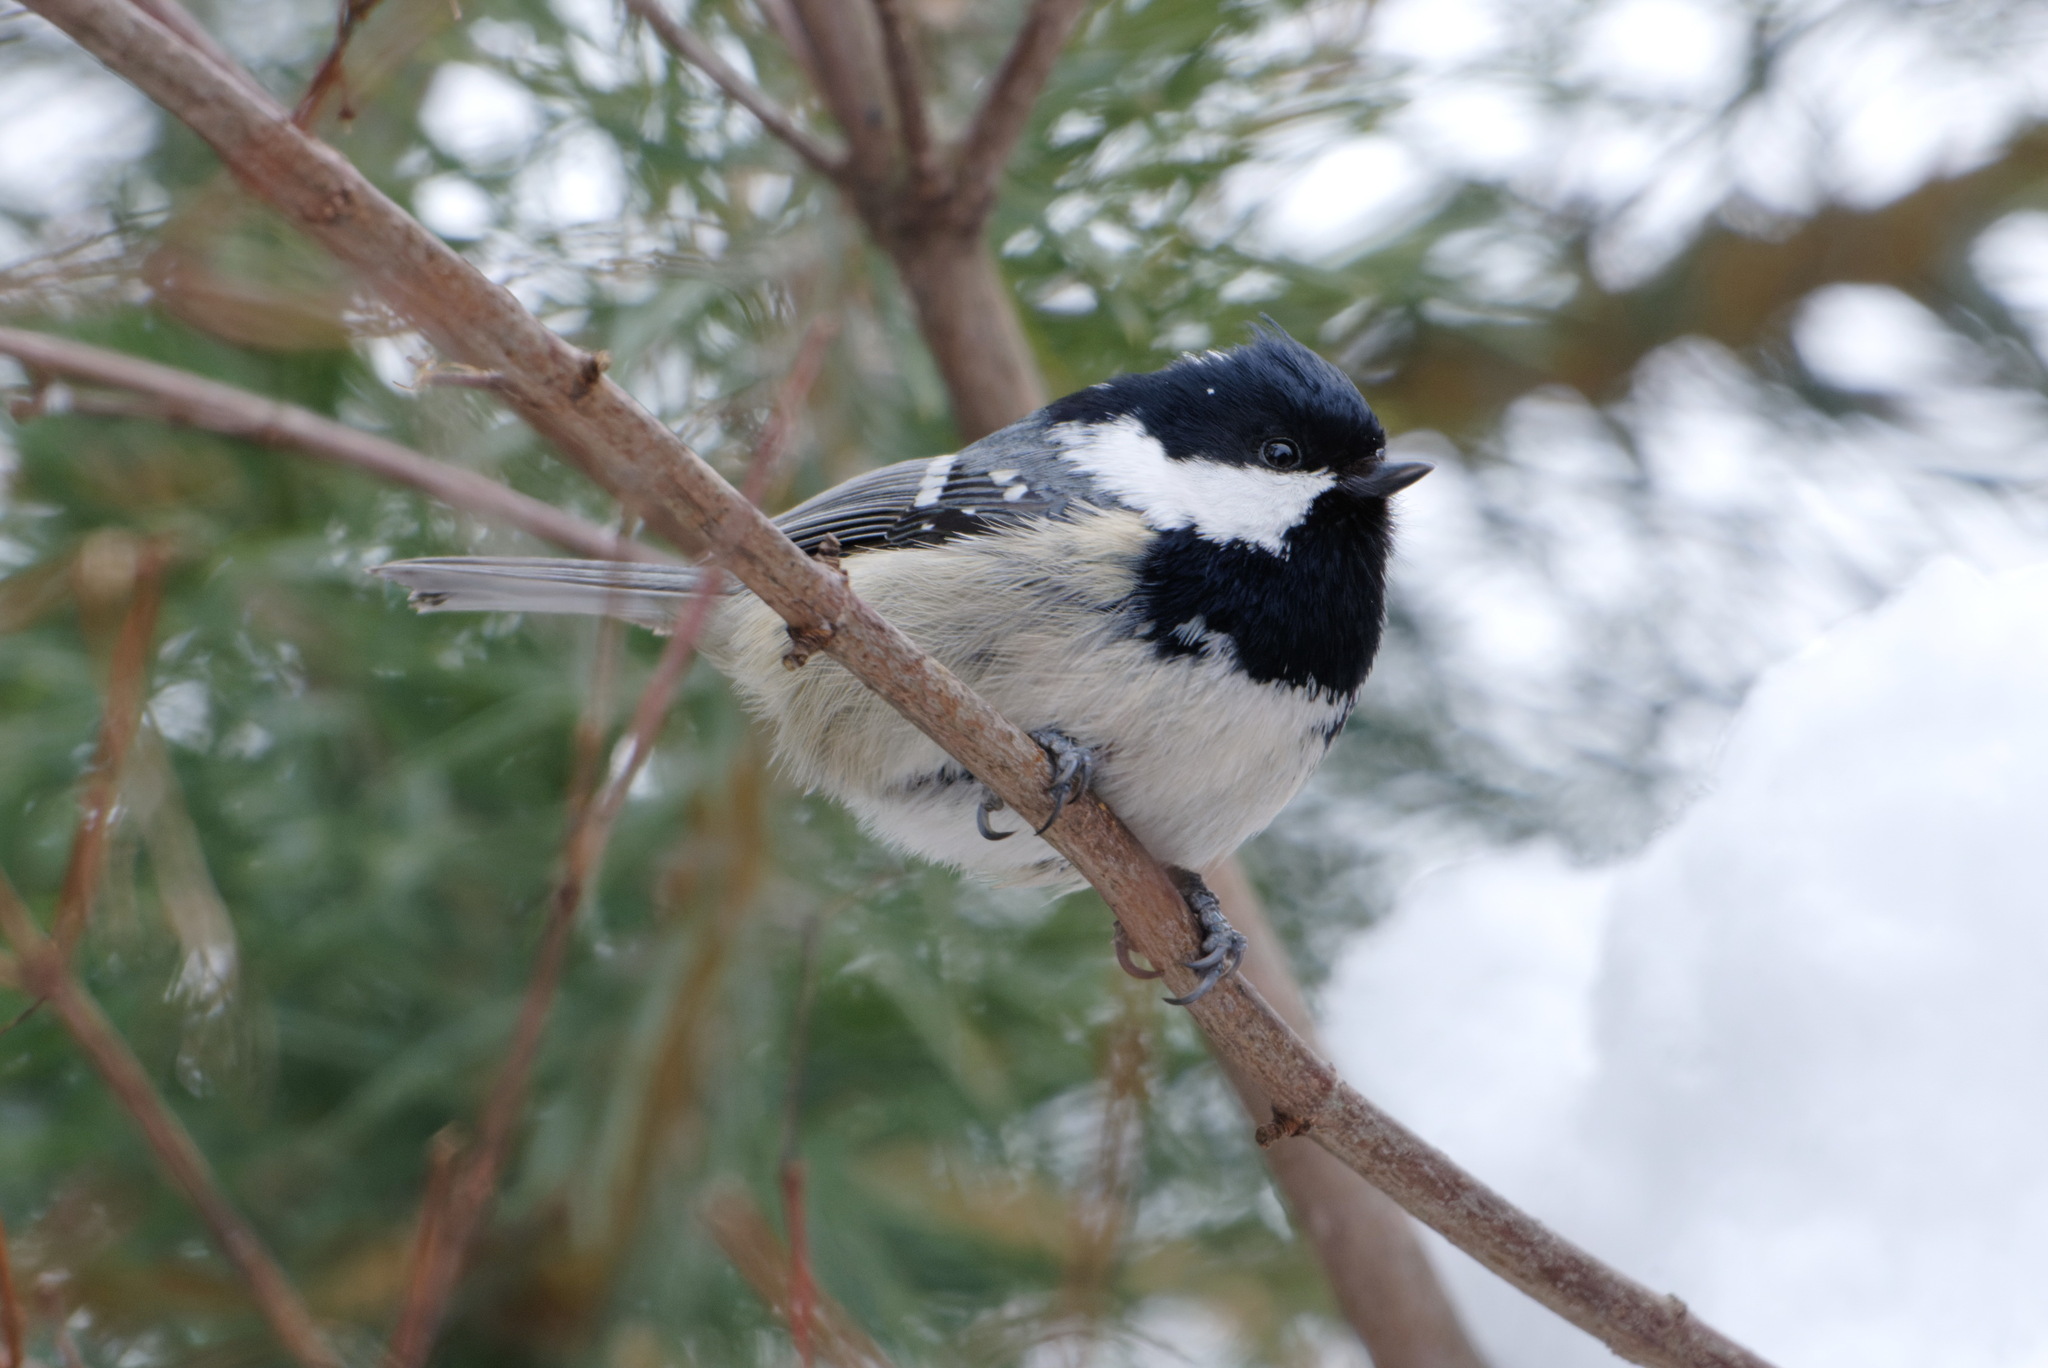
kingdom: Animalia
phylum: Chordata
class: Aves
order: Passeriformes
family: Paridae
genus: Periparus
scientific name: Periparus ater
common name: Coal tit
